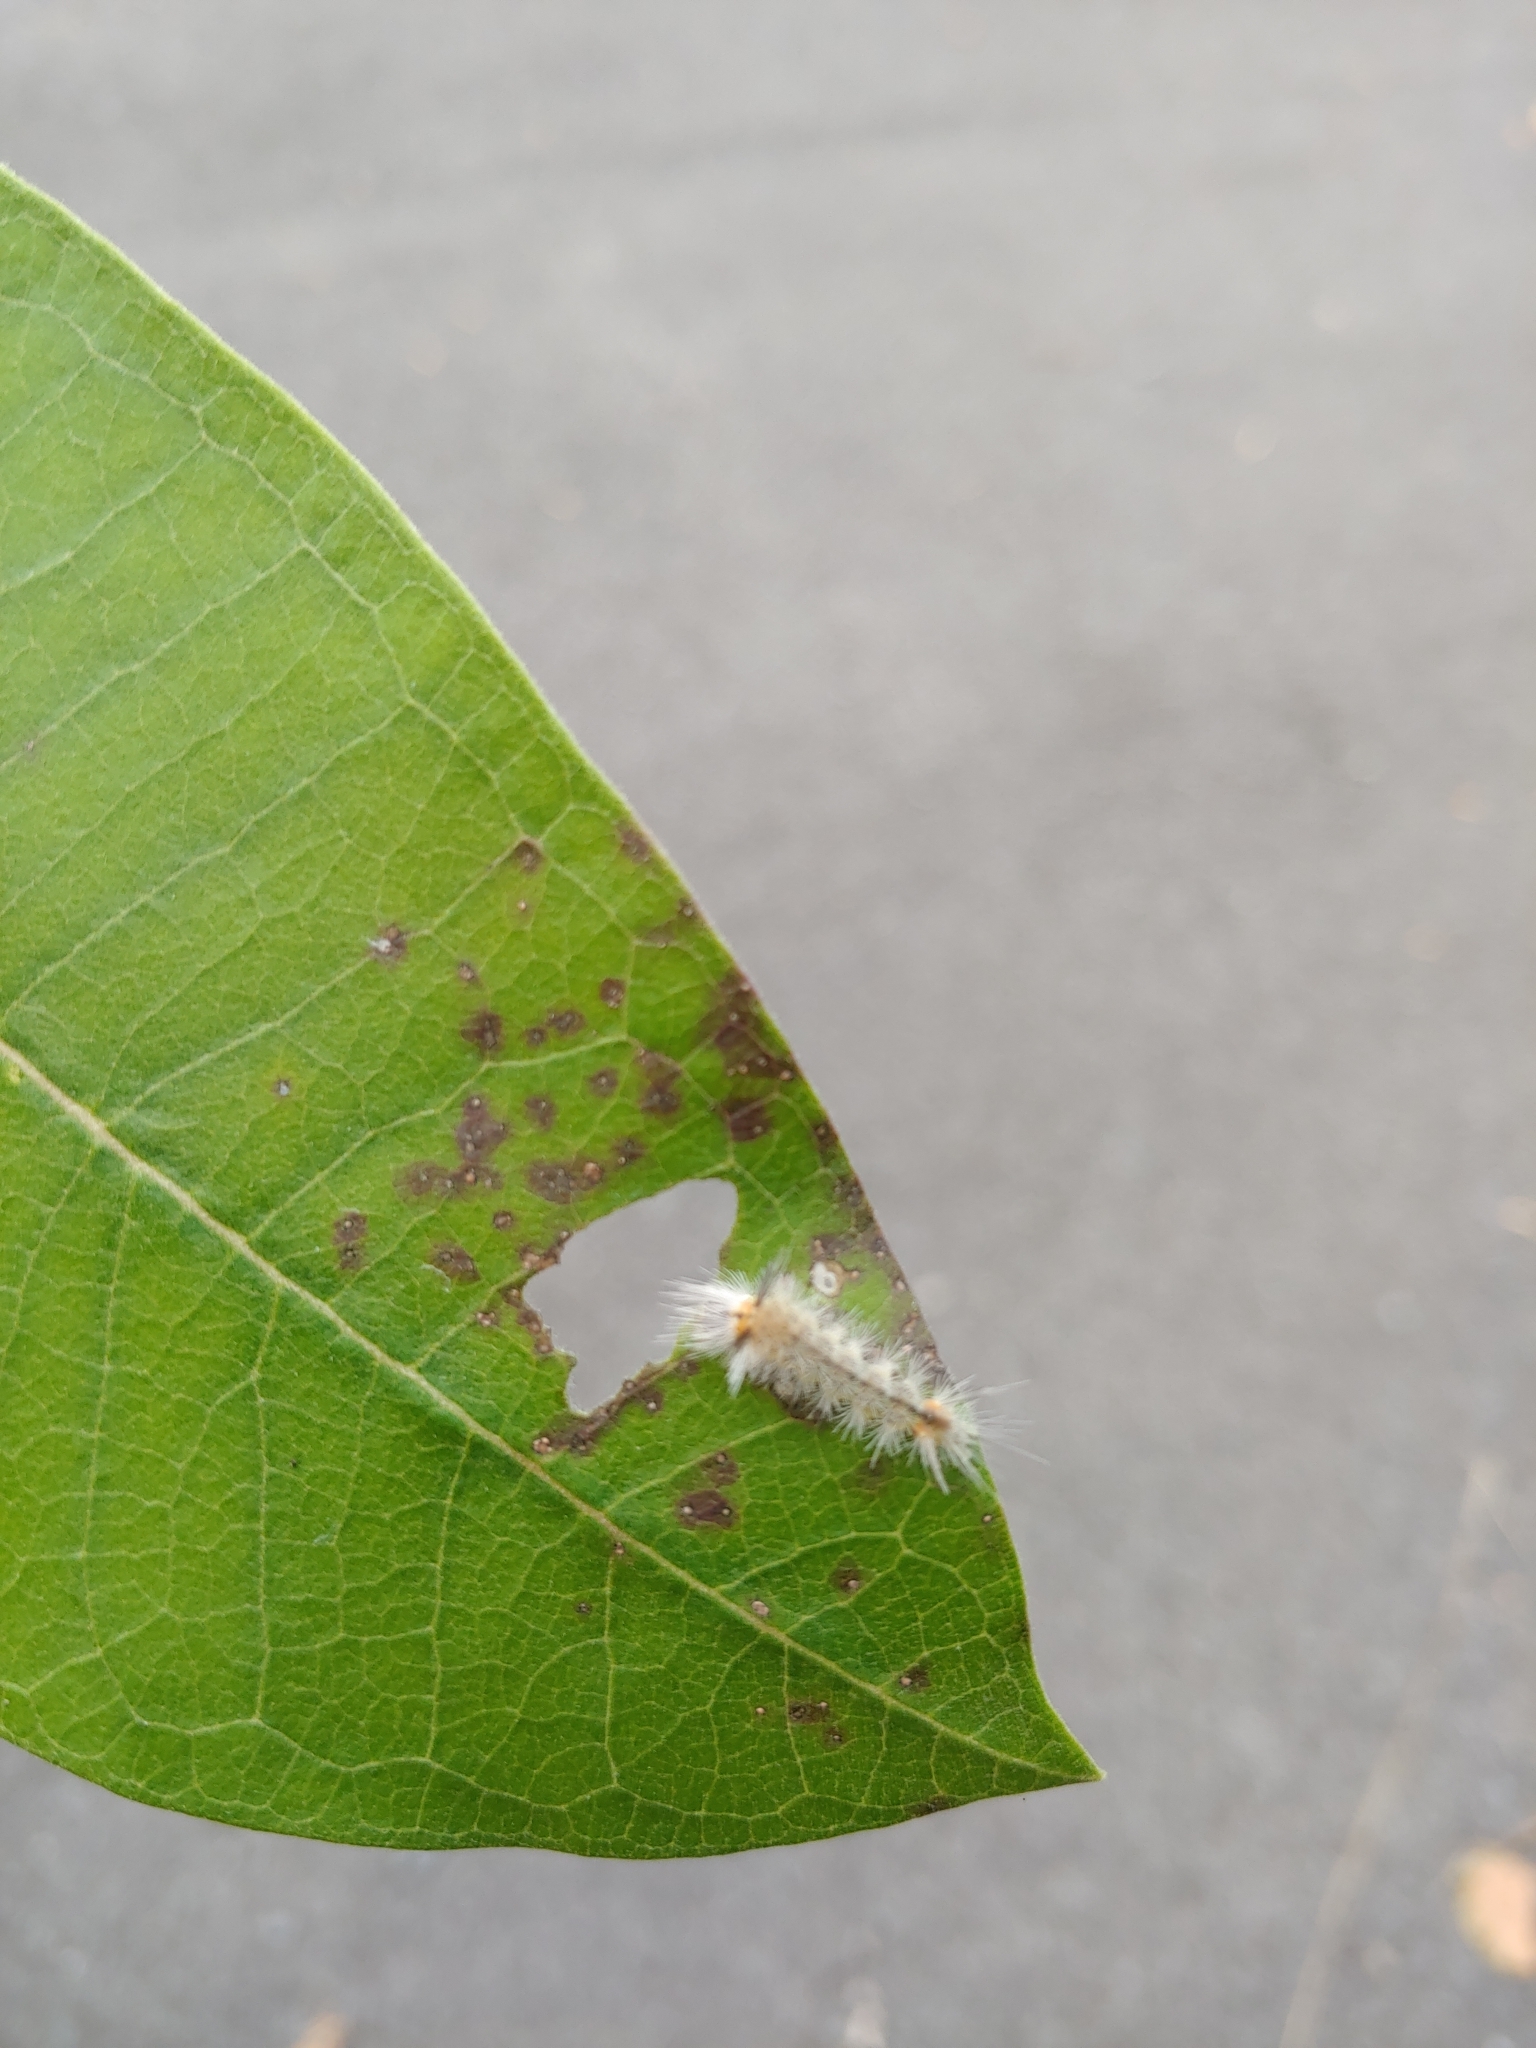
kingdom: Animalia
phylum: Arthropoda
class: Insecta
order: Lepidoptera
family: Erebidae
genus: Halysidota
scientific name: Halysidota tessellaris
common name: Banded tussock moth
